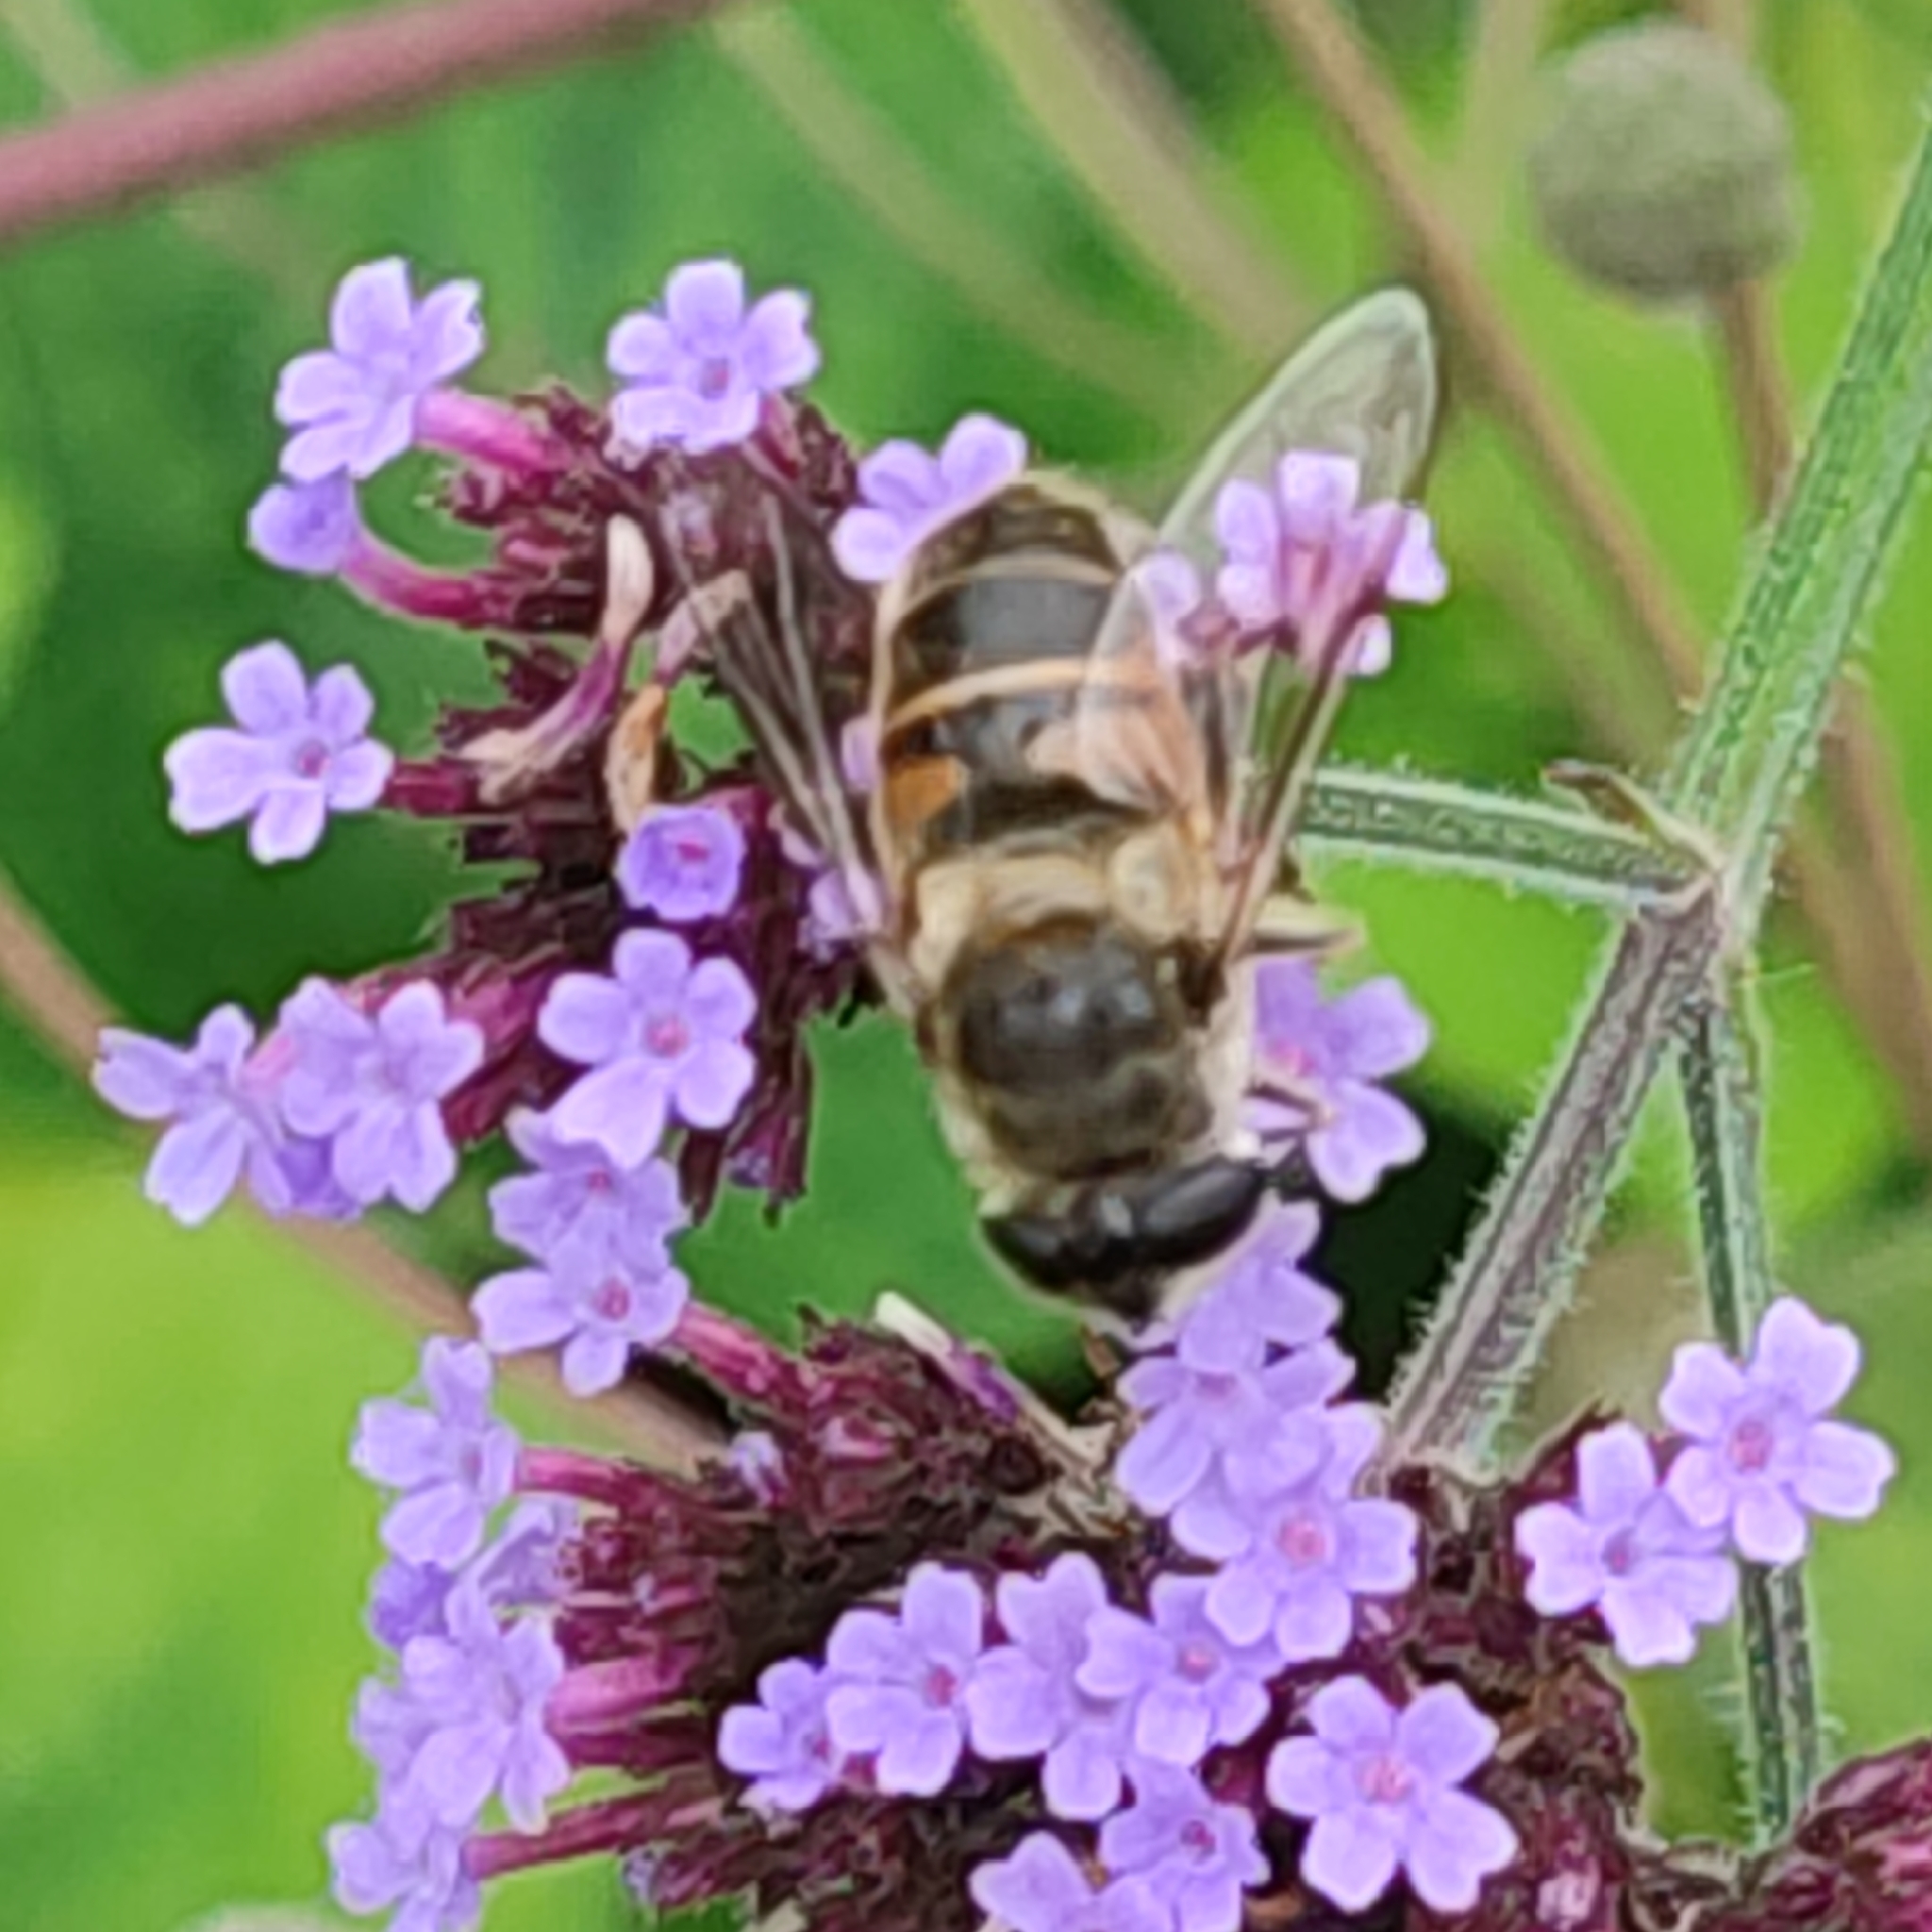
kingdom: Animalia
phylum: Arthropoda
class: Insecta
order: Diptera
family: Syrphidae
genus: Eristalis
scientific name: Eristalis tenax
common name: Drone fly
